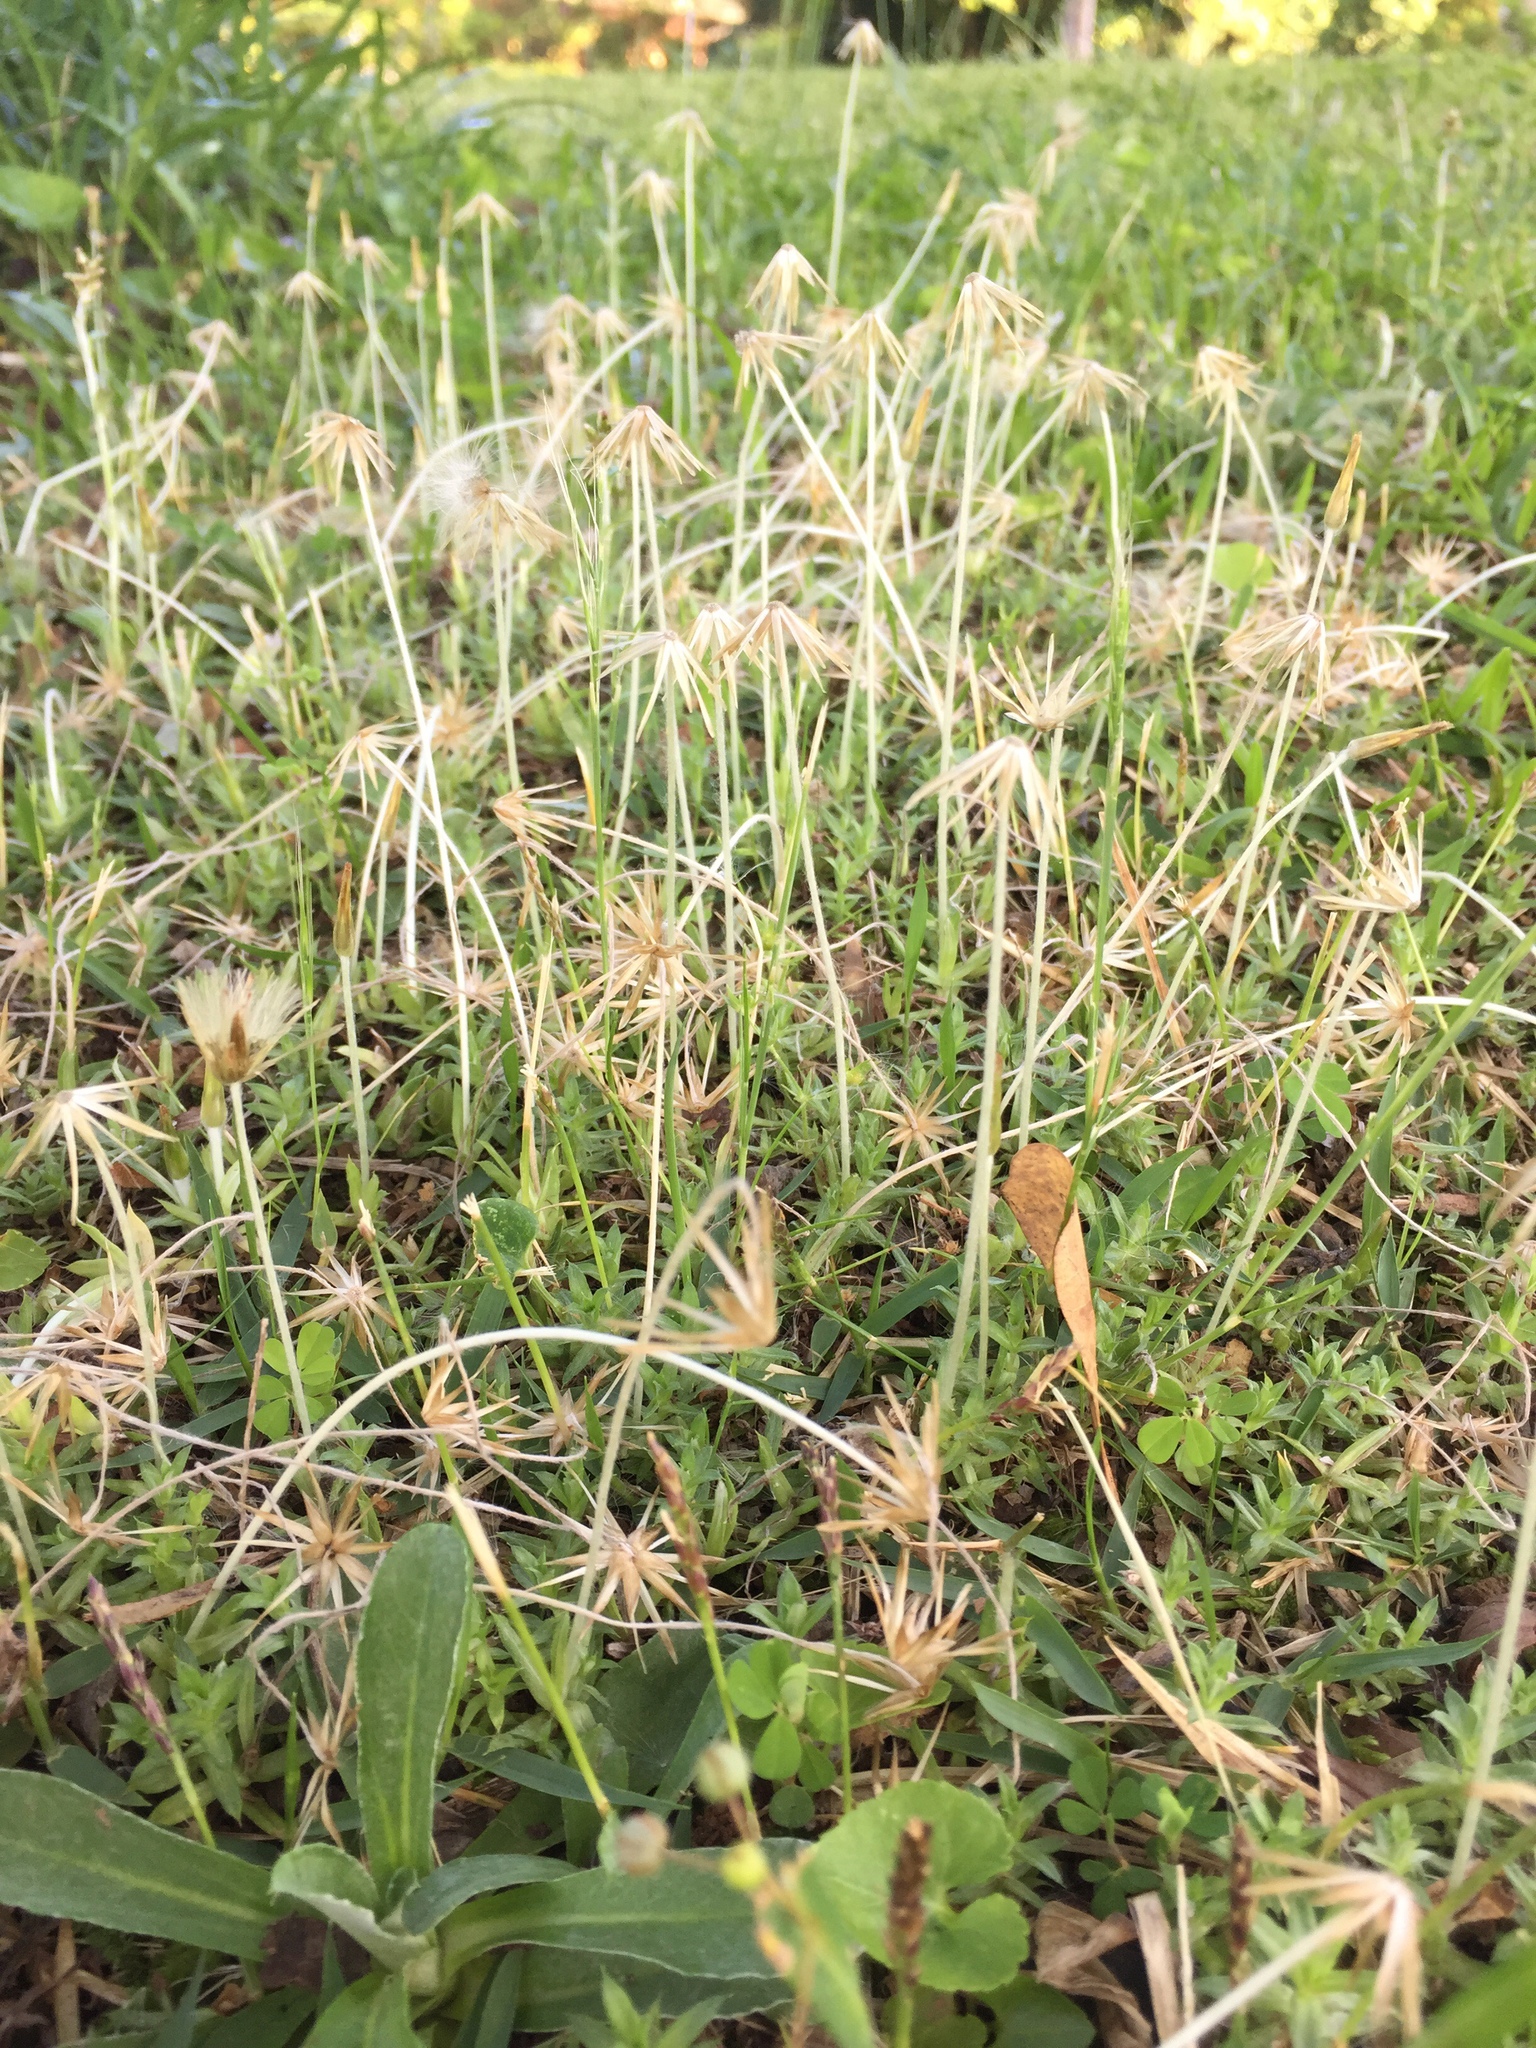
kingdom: Plantae
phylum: Tracheophyta
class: Magnoliopsida
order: Asterales
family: Asteraceae
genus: Chevreulia
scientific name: Chevreulia acuminata
